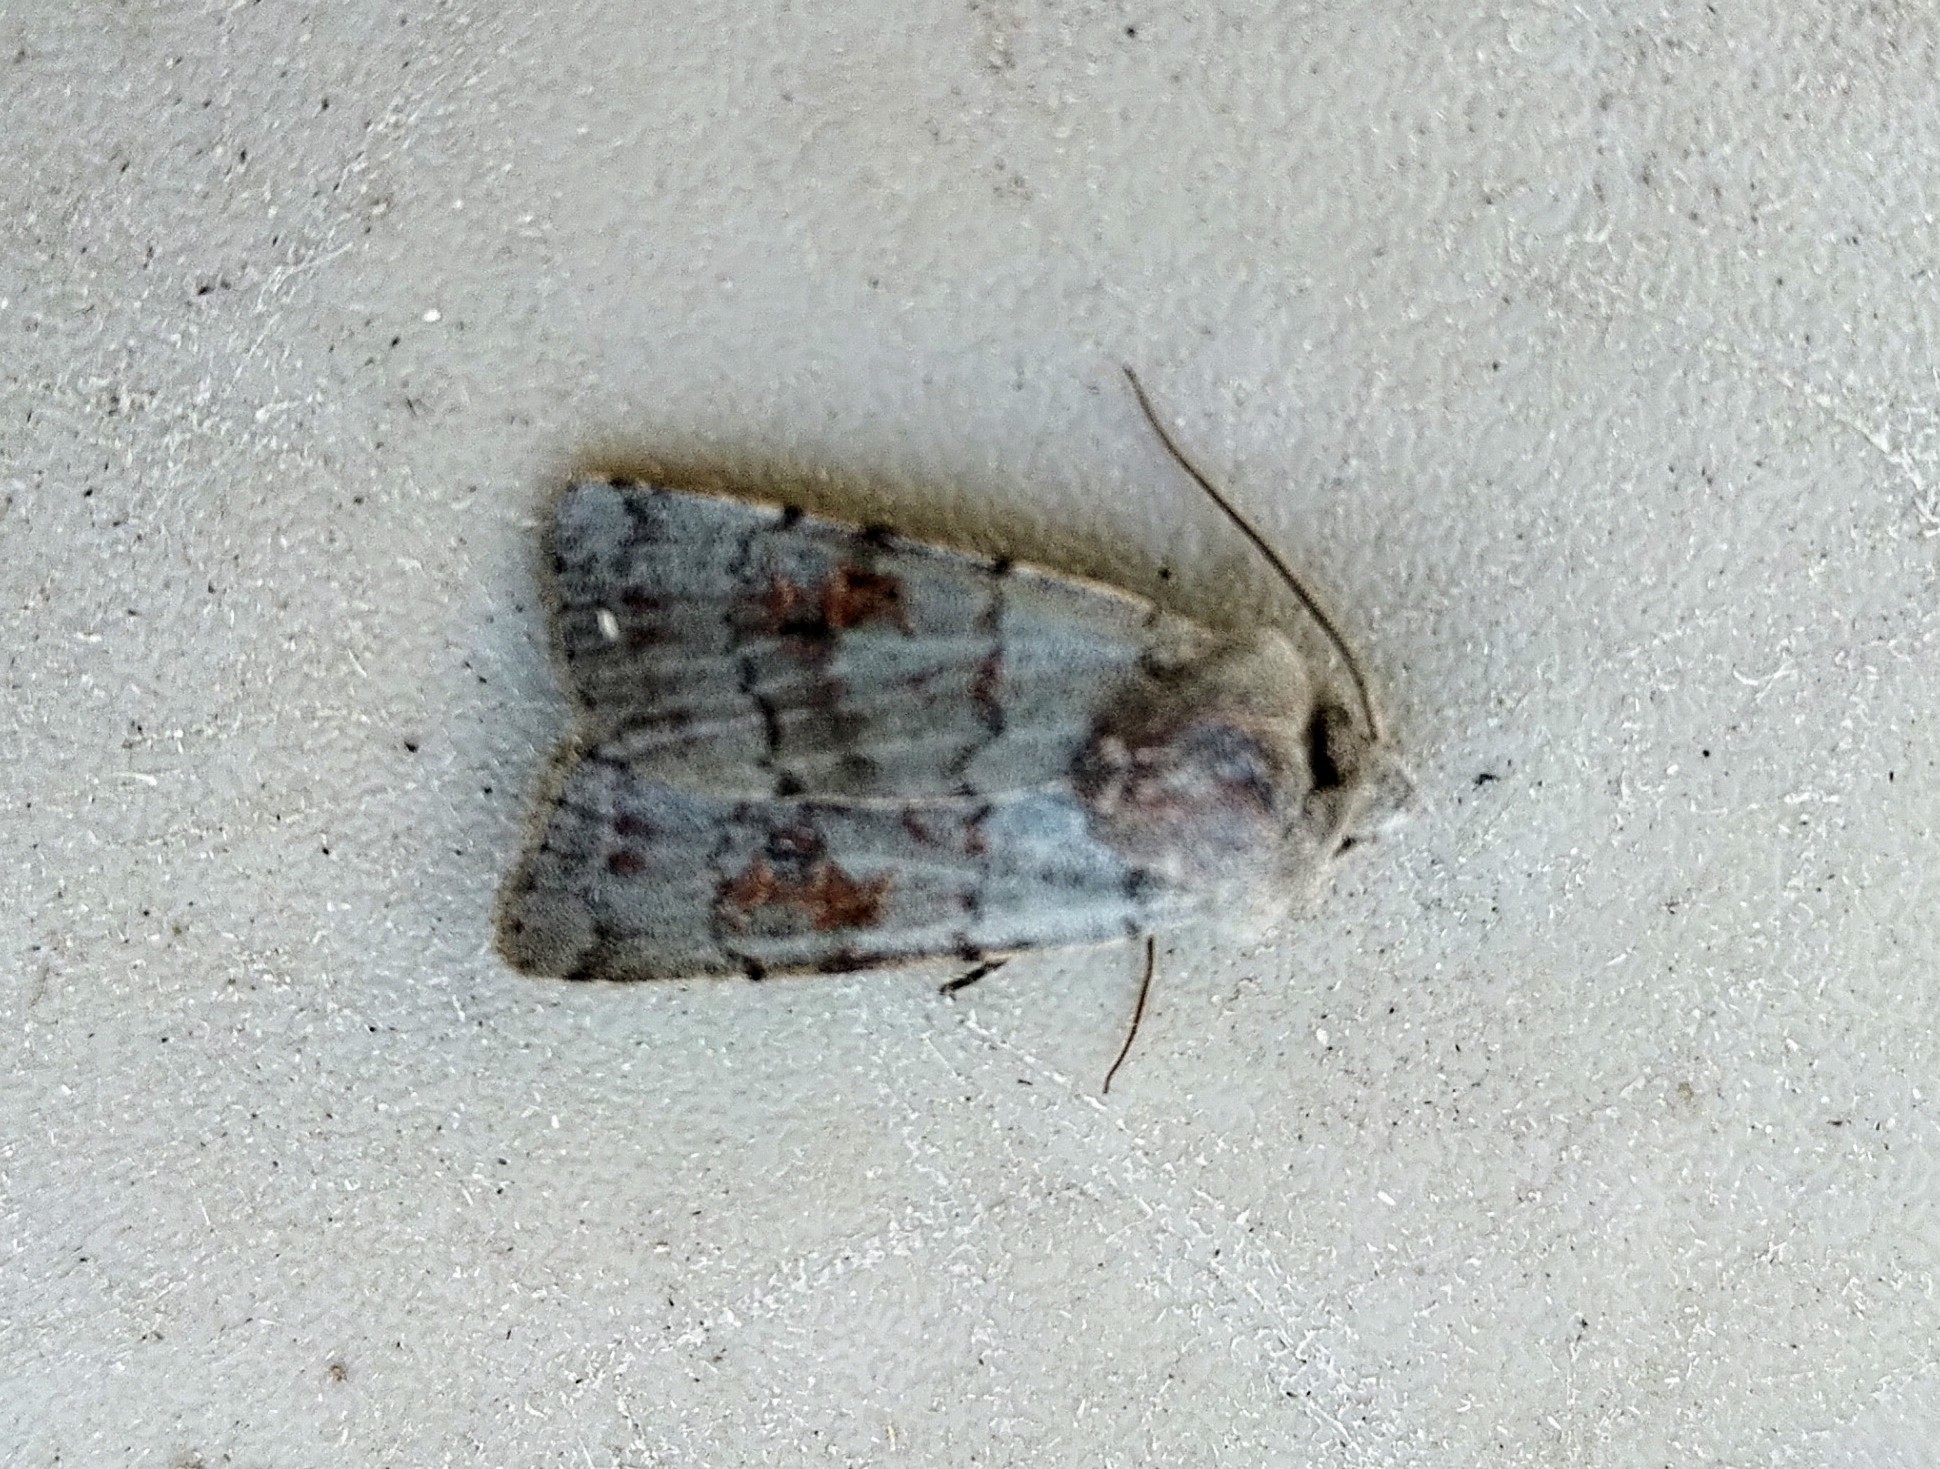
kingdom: Animalia
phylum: Arthropoda
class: Insecta
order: Lepidoptera
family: Noctuidae
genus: Euxoa
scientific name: Euxoa munis
